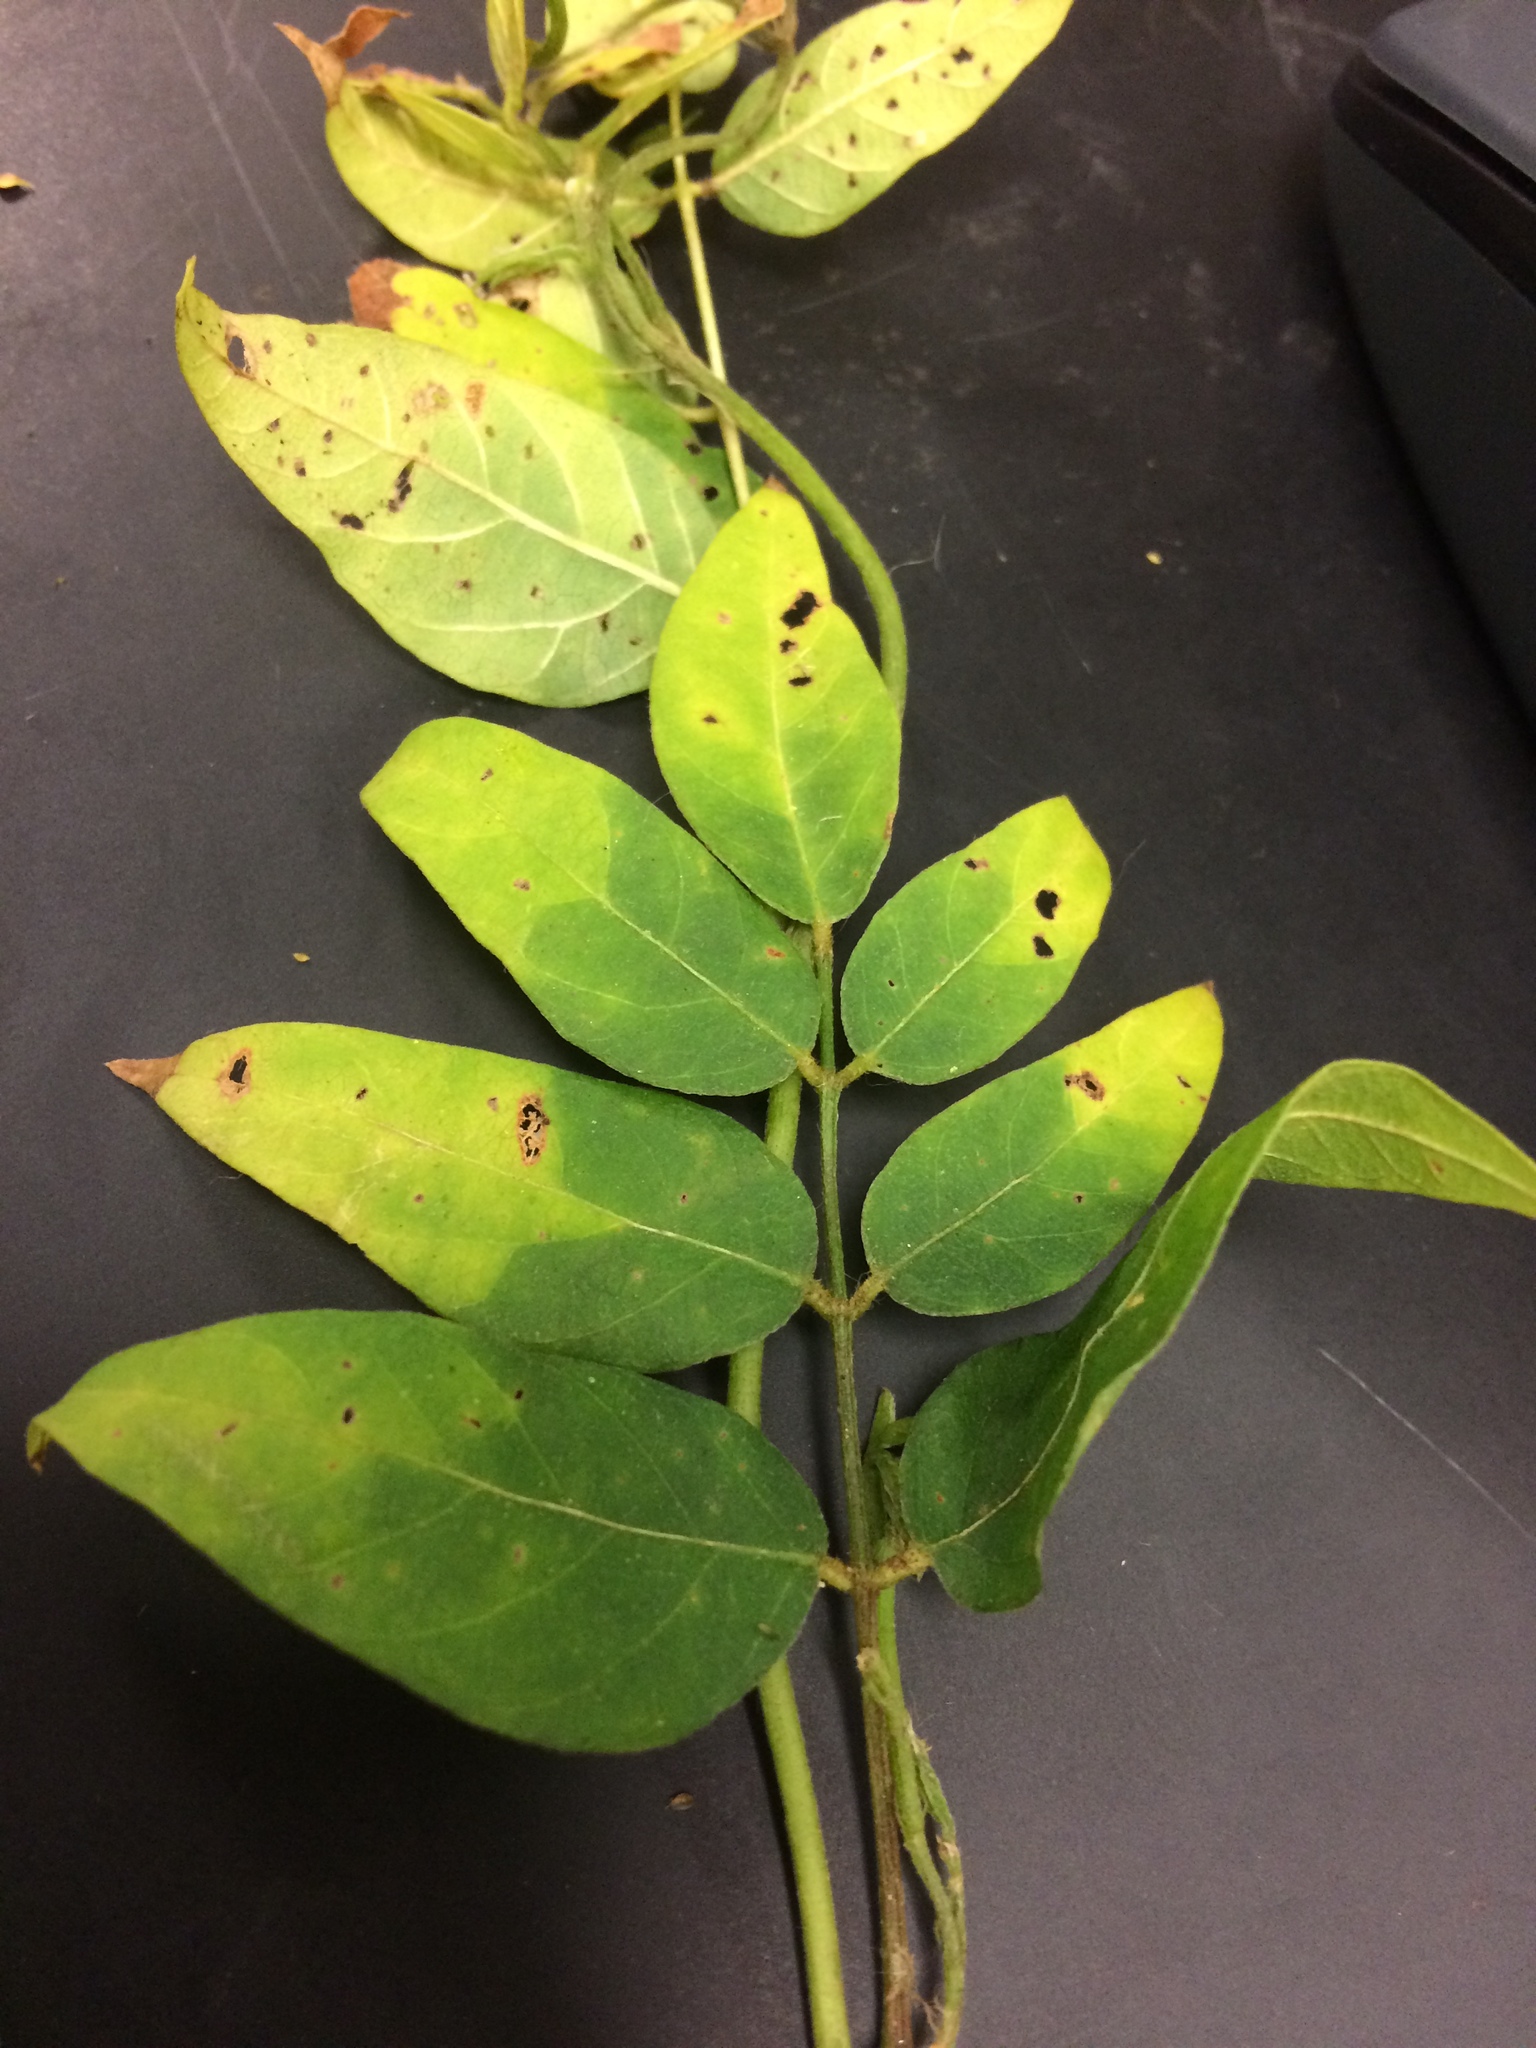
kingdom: Plantae
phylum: Tracheophyta
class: Magnoliopsida
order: Fabales
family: Fabaceae
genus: Apios
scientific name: Apios americana
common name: American potato-bean
